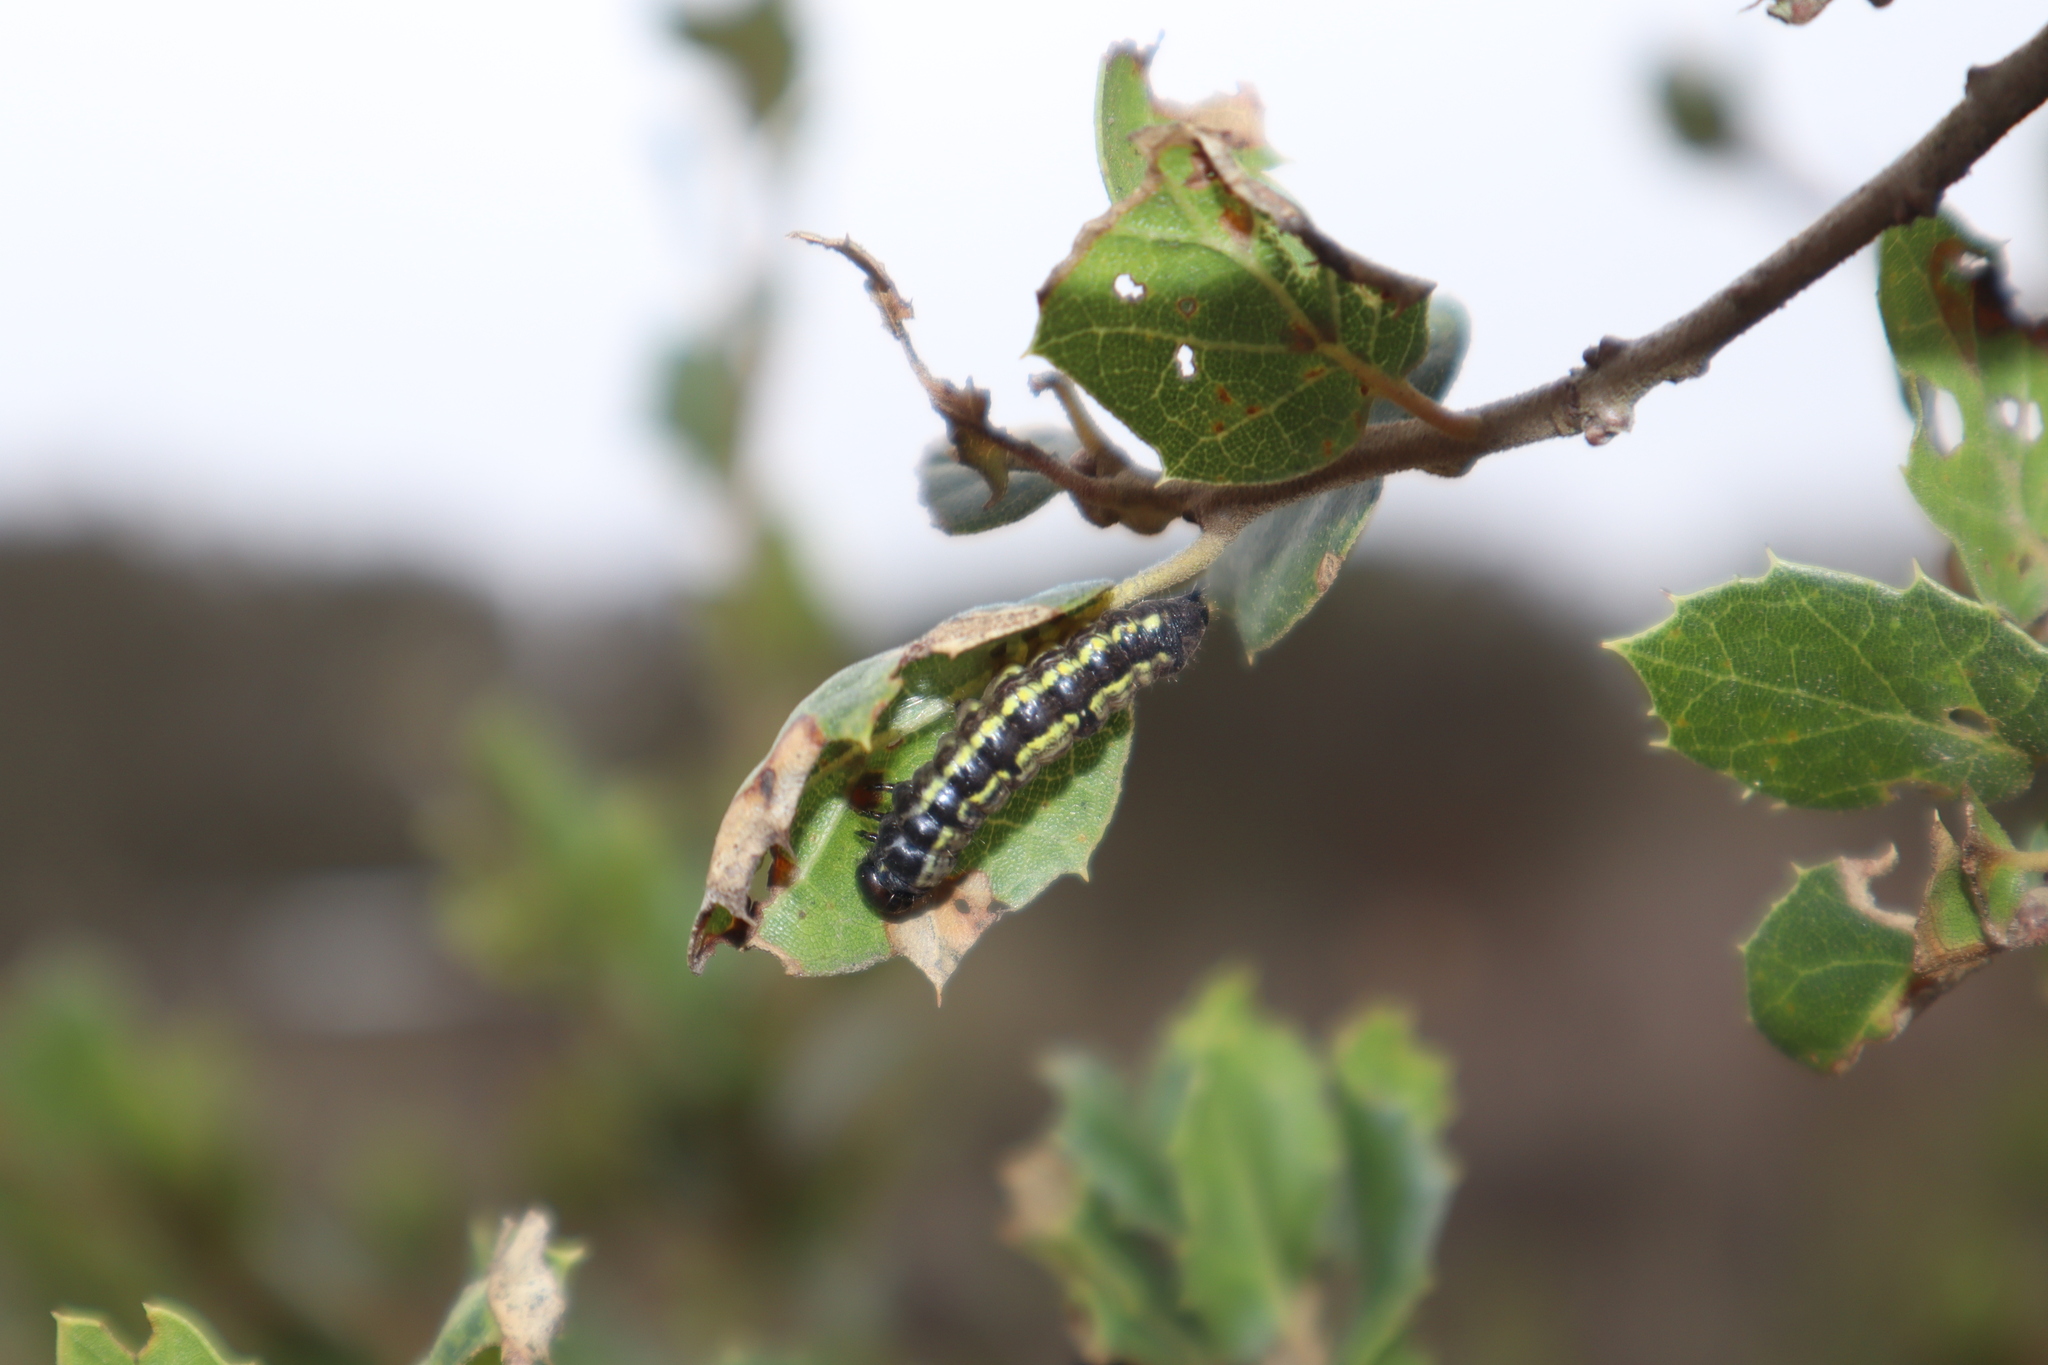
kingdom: Animalia
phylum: Arthropoda
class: Insecta
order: Lepidoptera
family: Notodontidae
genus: Phryganidia
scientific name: Phryganidia californica
